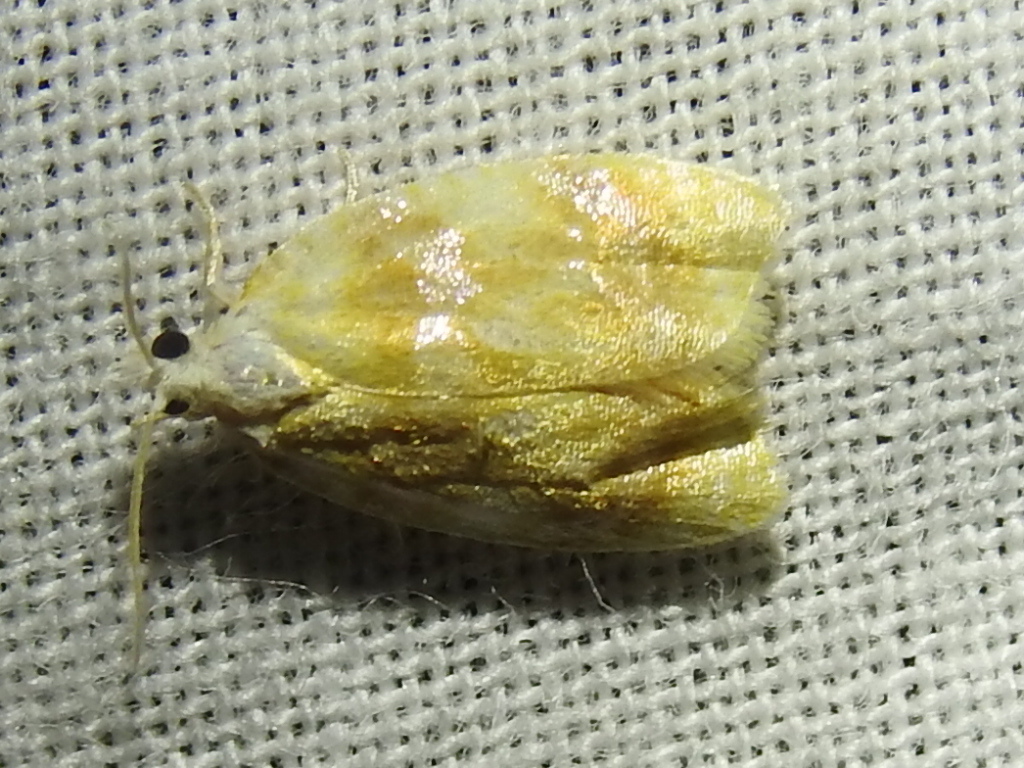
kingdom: Animalia
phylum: Arthropoda
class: Insecta
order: Lepidoptera
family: Tortricidae
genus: Acleris
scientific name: Acleris semipurpurana
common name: Oak leaftier moth
